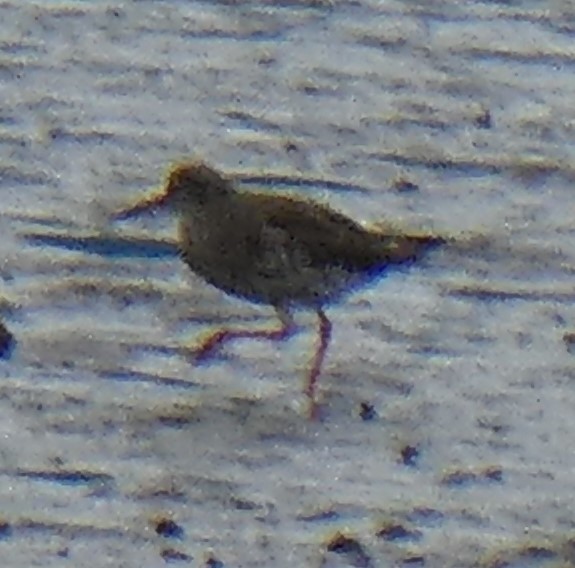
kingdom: Animalia
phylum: Chordata
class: Aves
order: Charadriiformes
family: Scolopacidae
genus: Tringa
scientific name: Tringa totanus
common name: Common redshank
